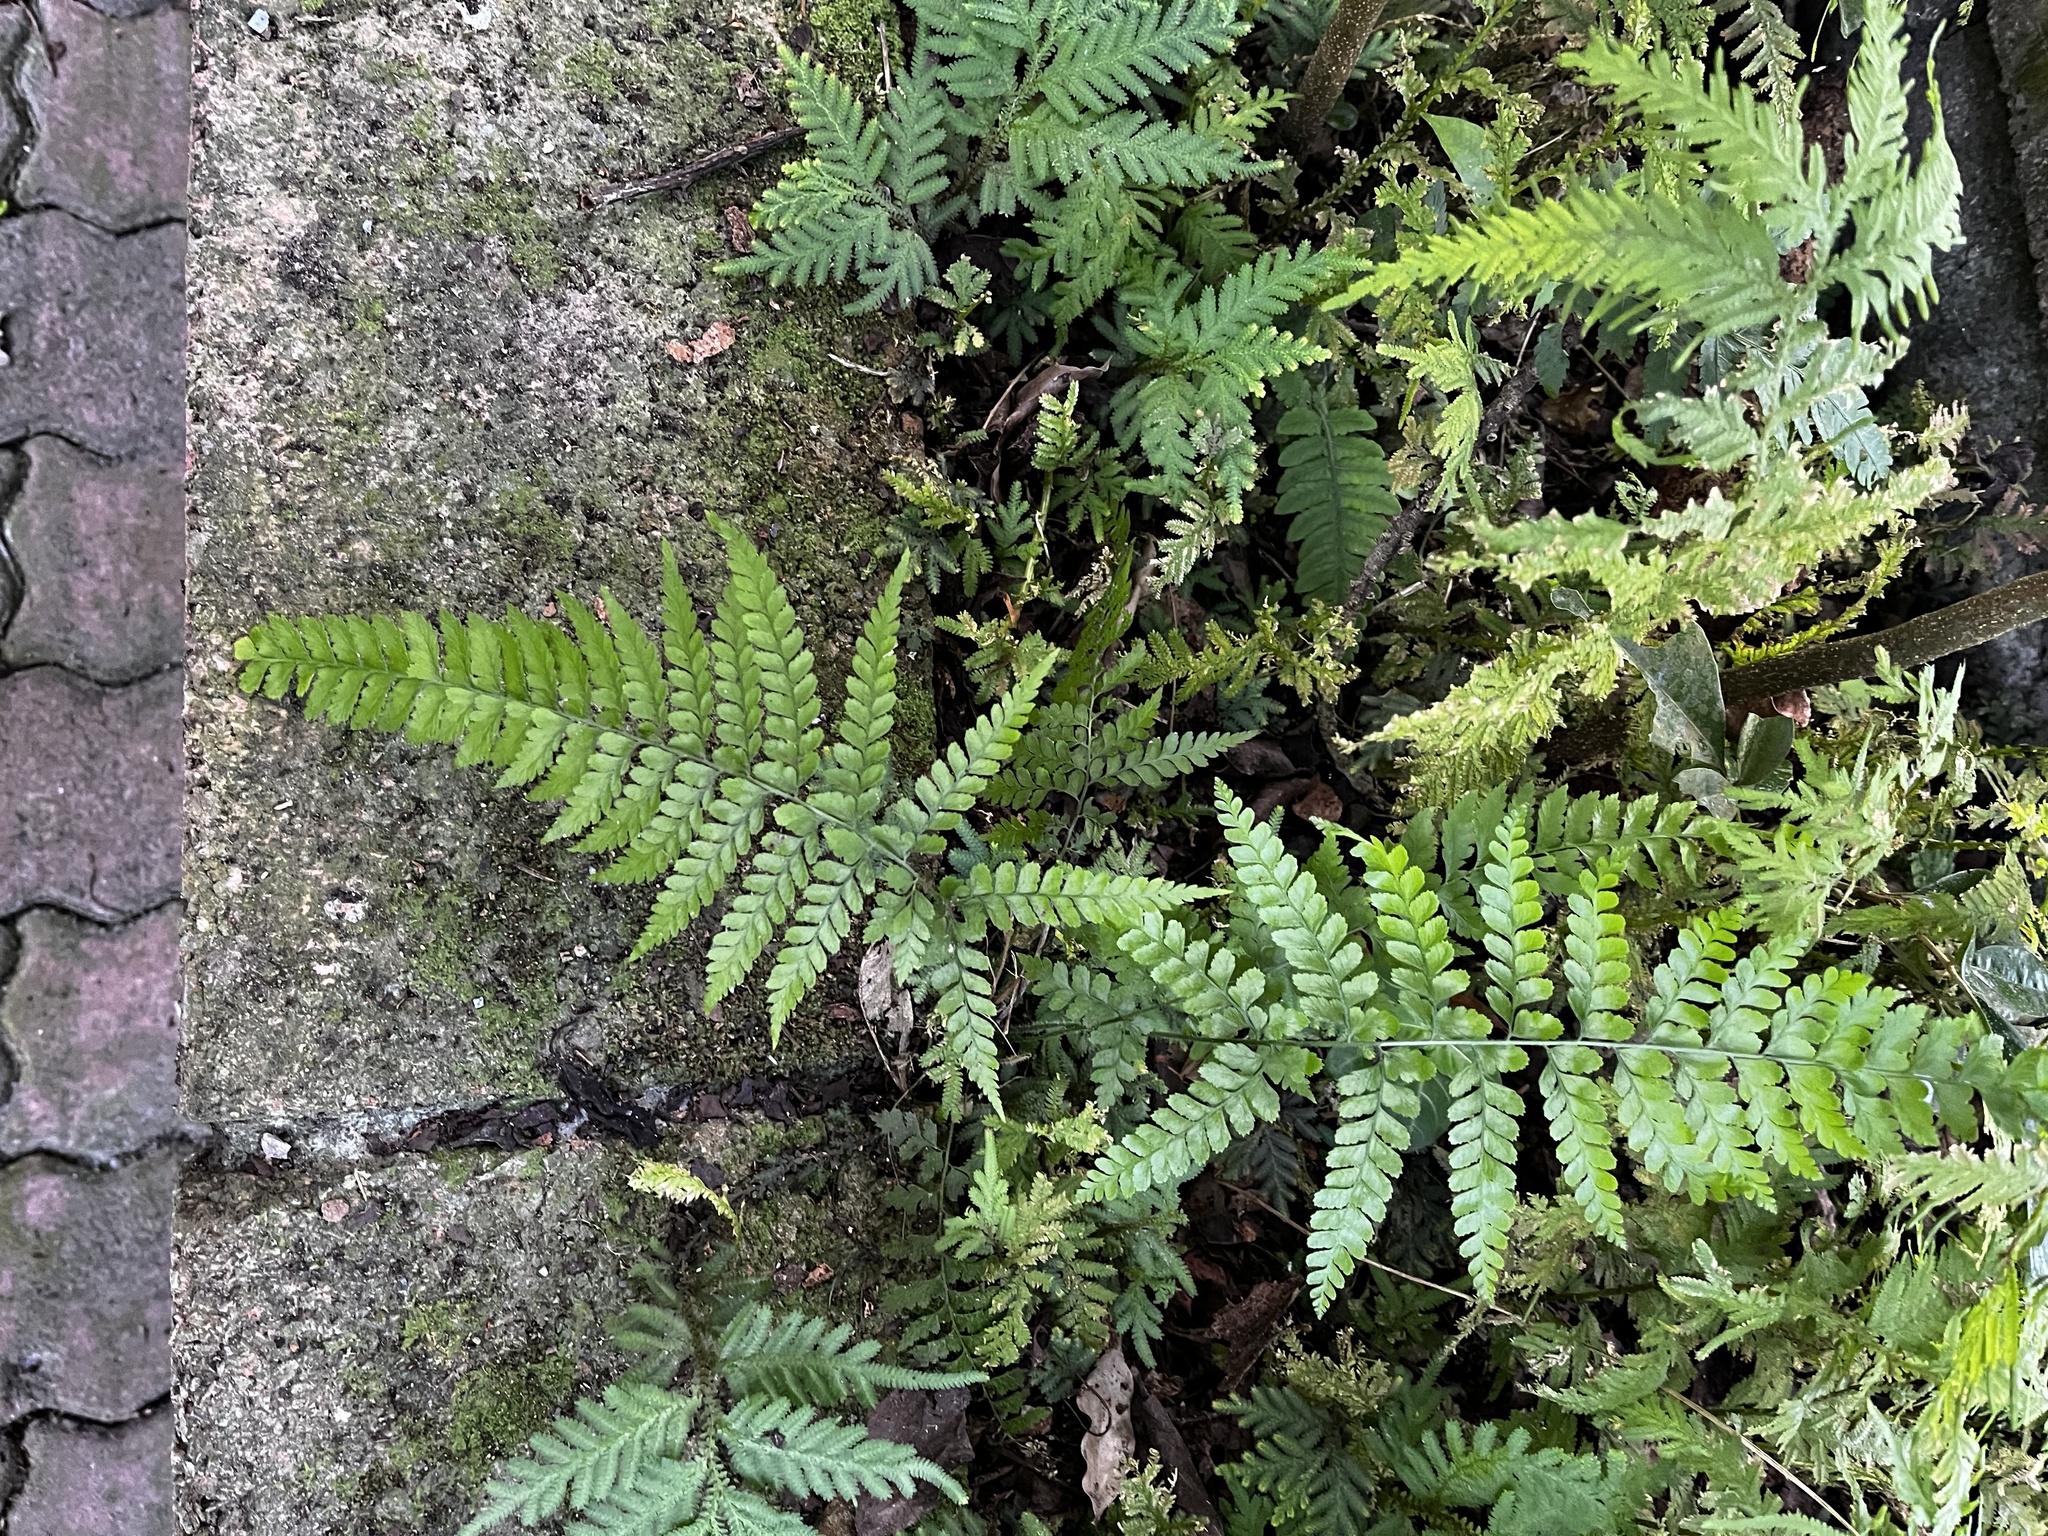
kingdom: Plantae
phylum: Tracheophyta
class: Polypodiopsida
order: Polypodiales
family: Dennstaedtiaceae
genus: Microlepia
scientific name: Microlepia strigosa
